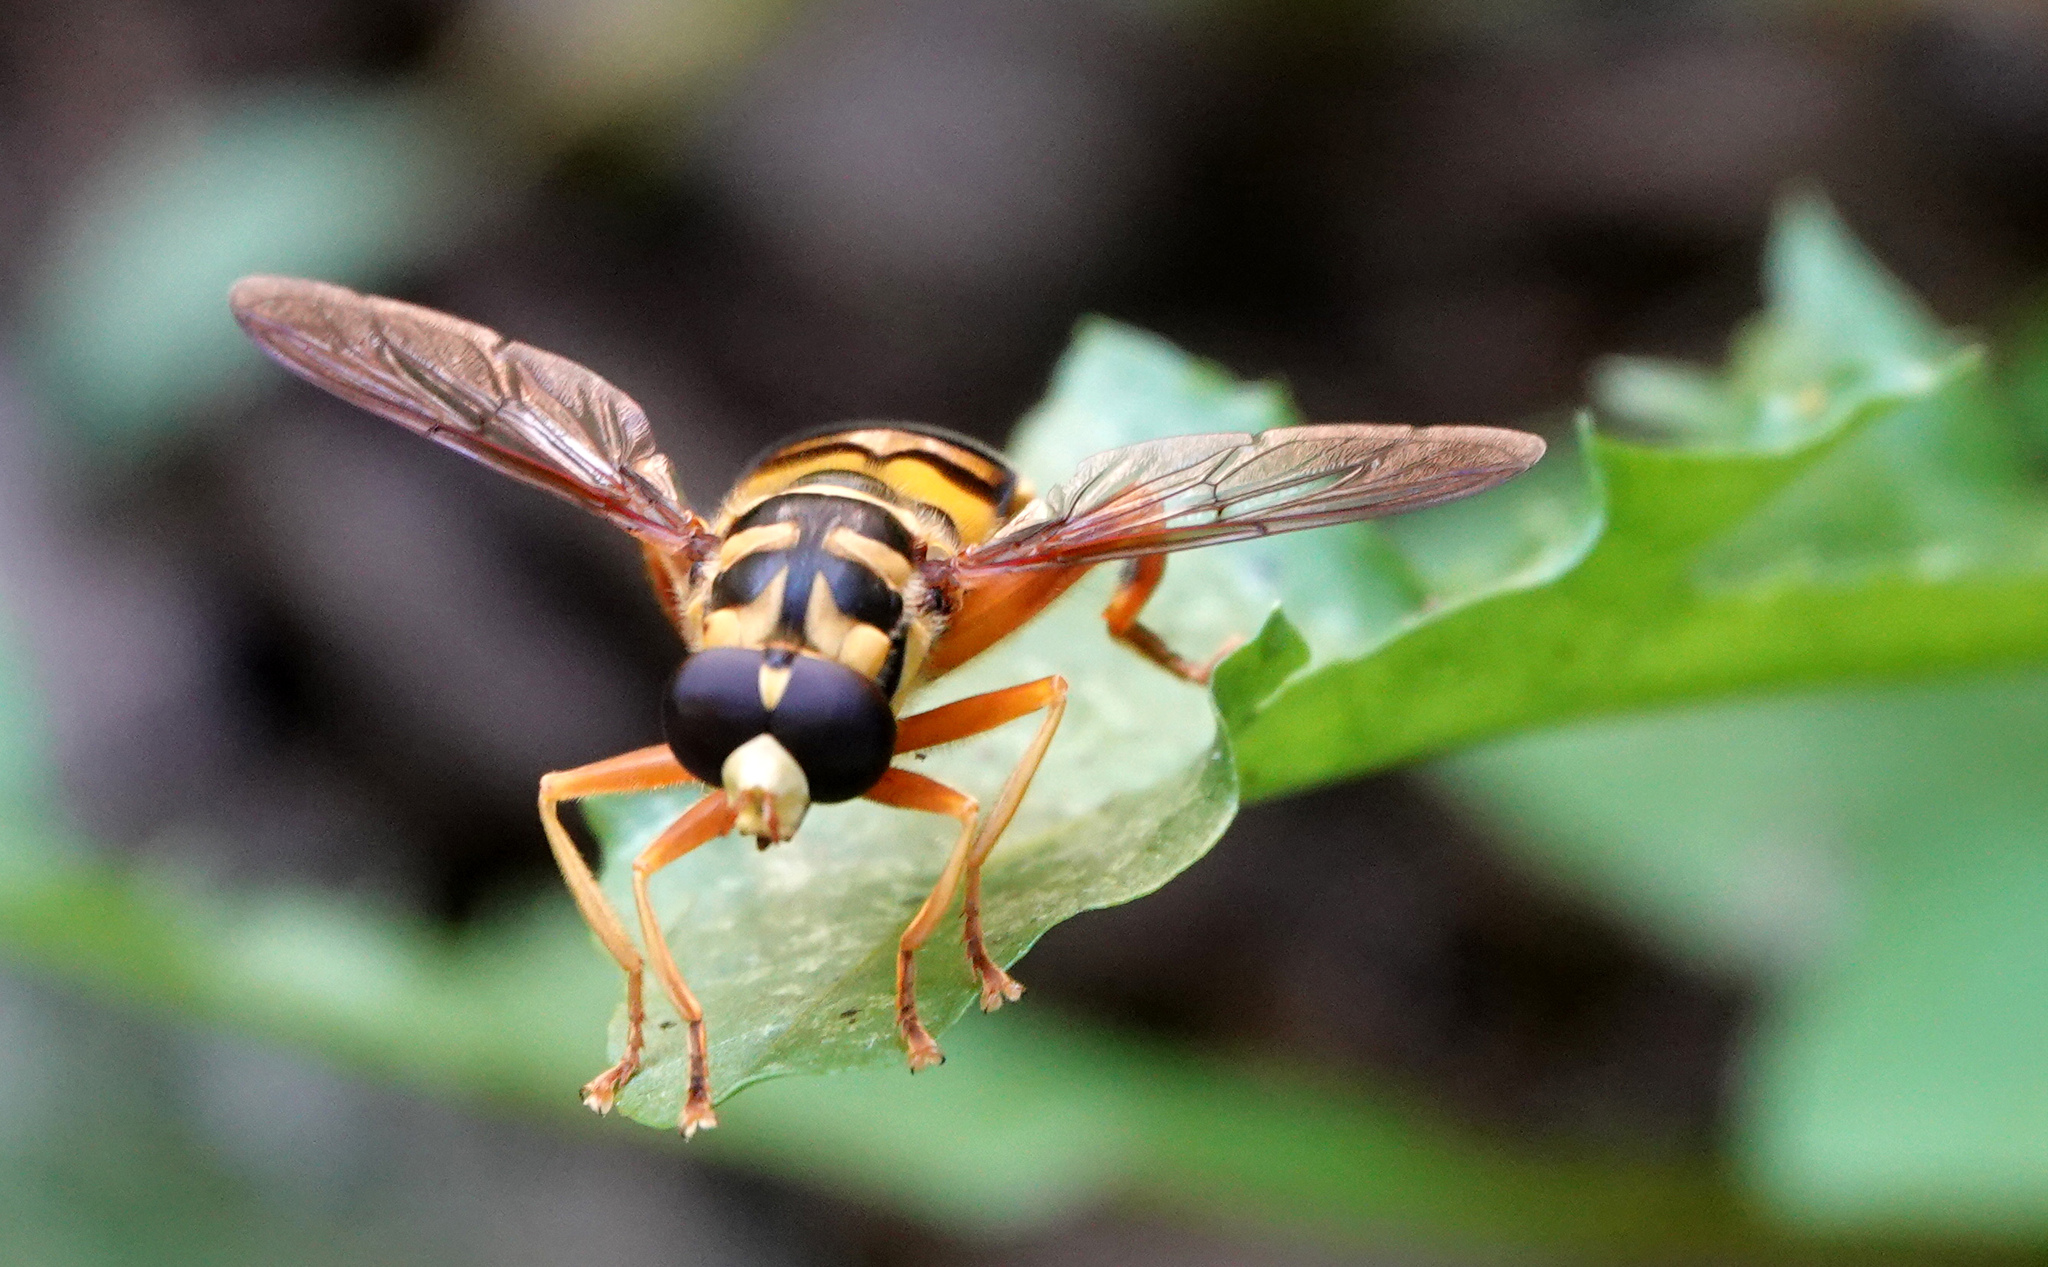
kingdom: Animalia
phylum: Arthropoda
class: Insecta
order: Diptera
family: Syrphidae
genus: Milesia
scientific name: Milesia virginiensis
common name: Virginia giant
